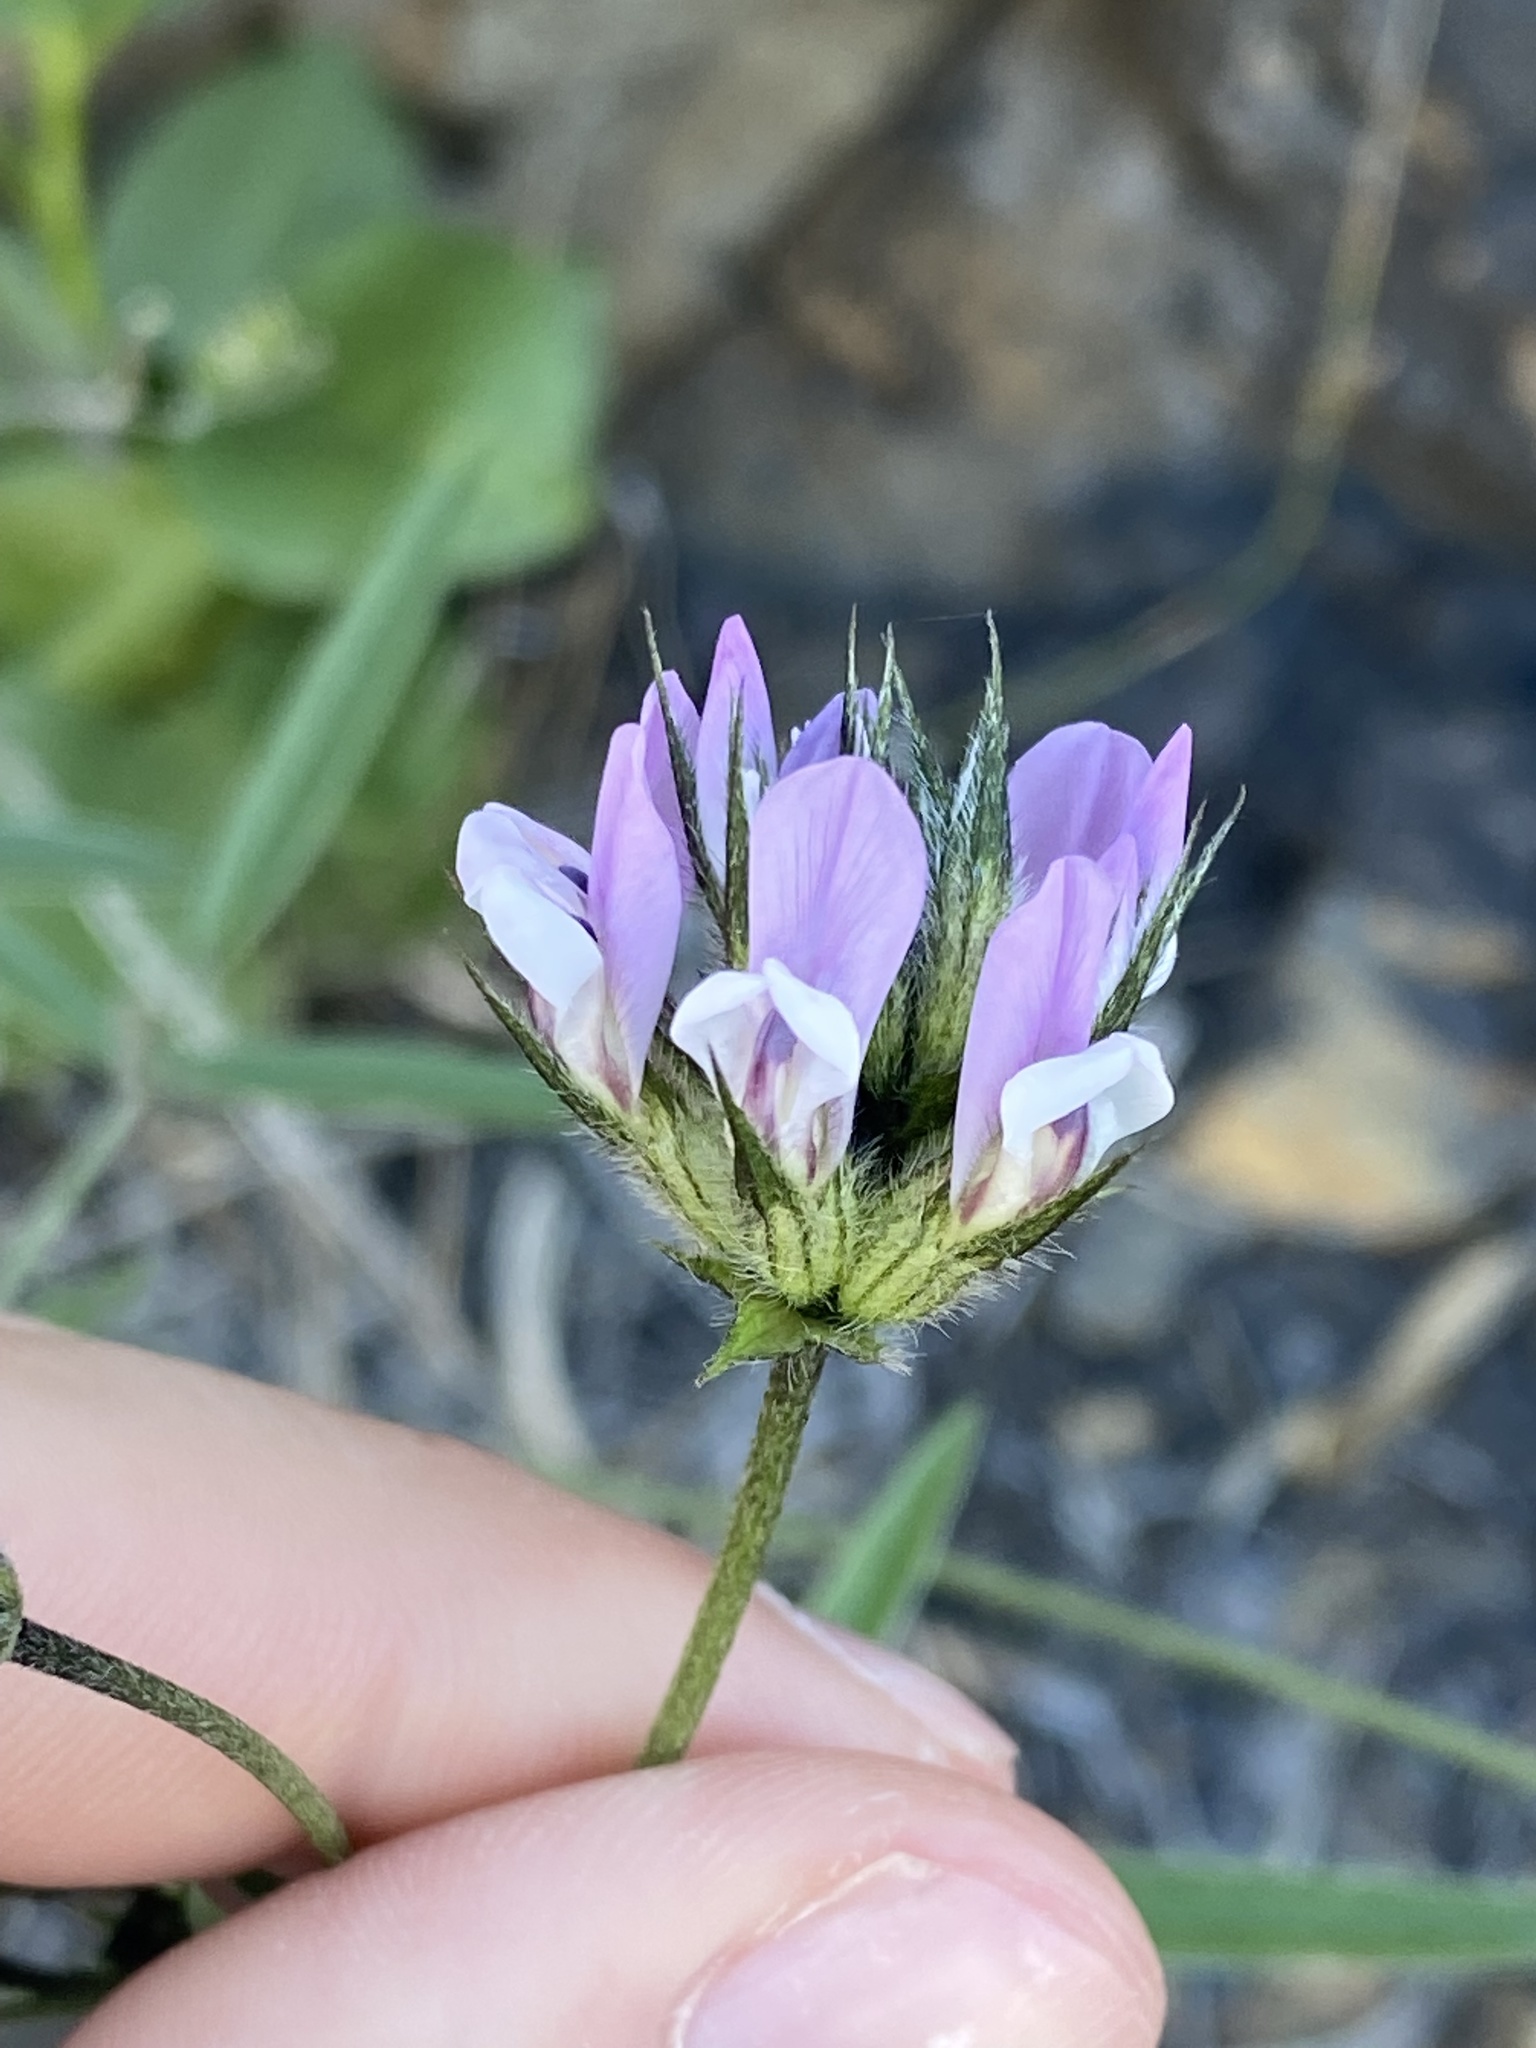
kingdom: Plantae
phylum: Tracheophyta
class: Magnoliopsida
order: Fabales
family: Fabaceae
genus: Bituminaria
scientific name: Bituminaria bituminosa
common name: Arabian pea
